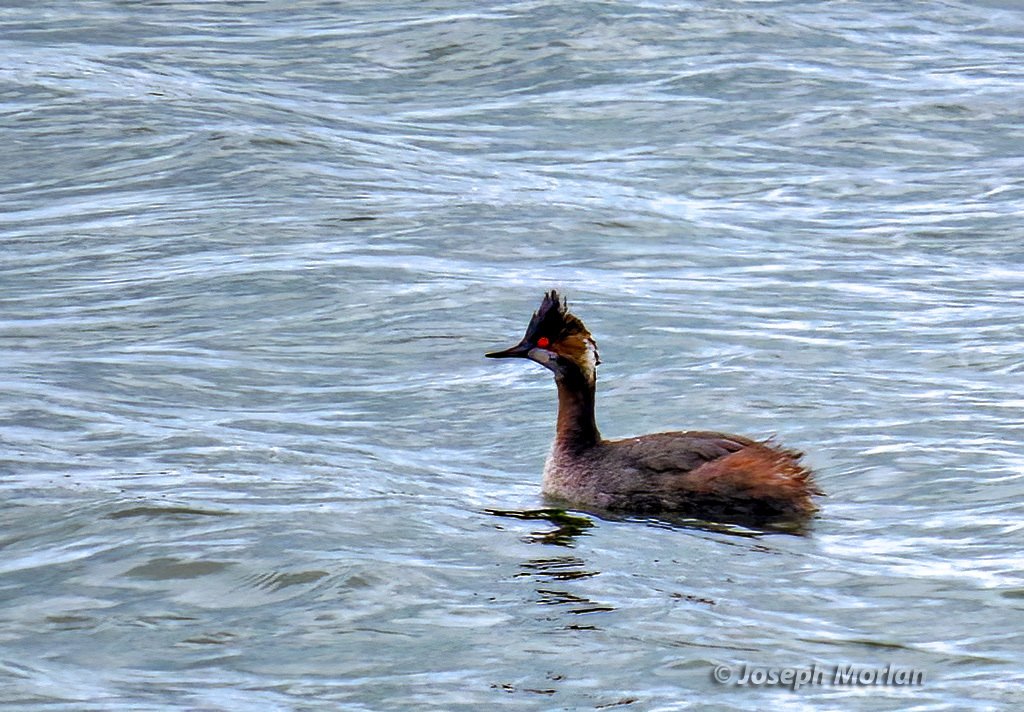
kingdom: Animalia
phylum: Chordata
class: Aves
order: Podicipediformes
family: Podicipedidae
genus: Podiceps
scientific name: Podiceps nigricollis
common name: Black-necked grebe
